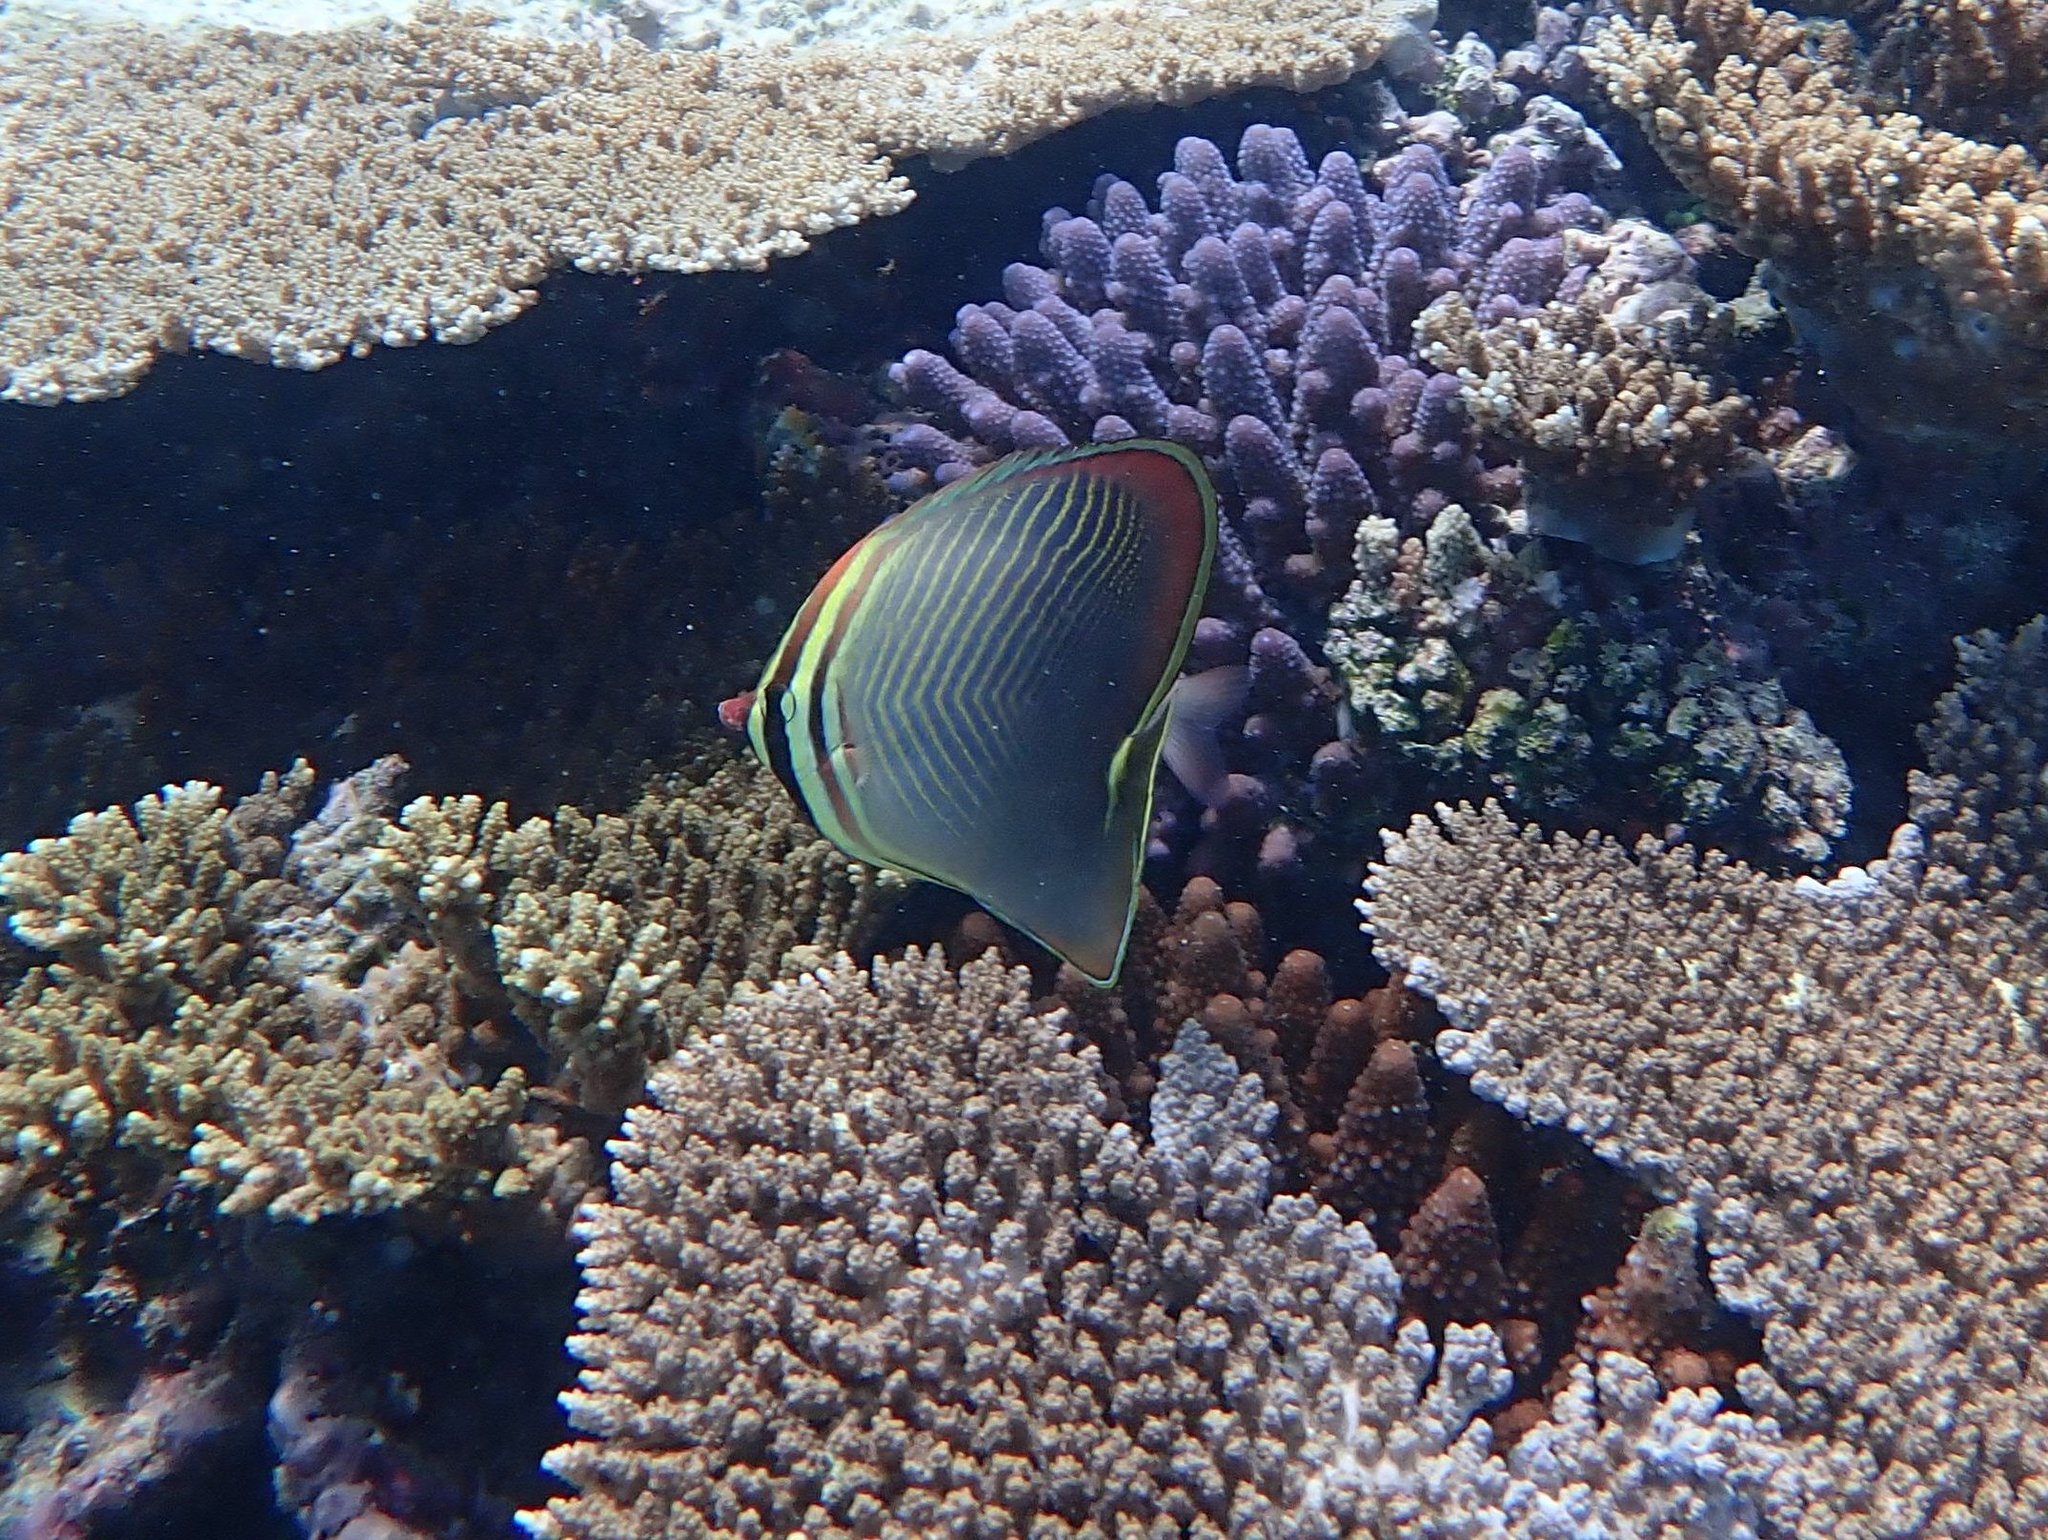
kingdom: Animalia
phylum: Chordata
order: Perciformes
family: Chaetodontidae
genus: Chaetodon
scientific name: Chaetodon baronessa
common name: Triangular butterflyfish
